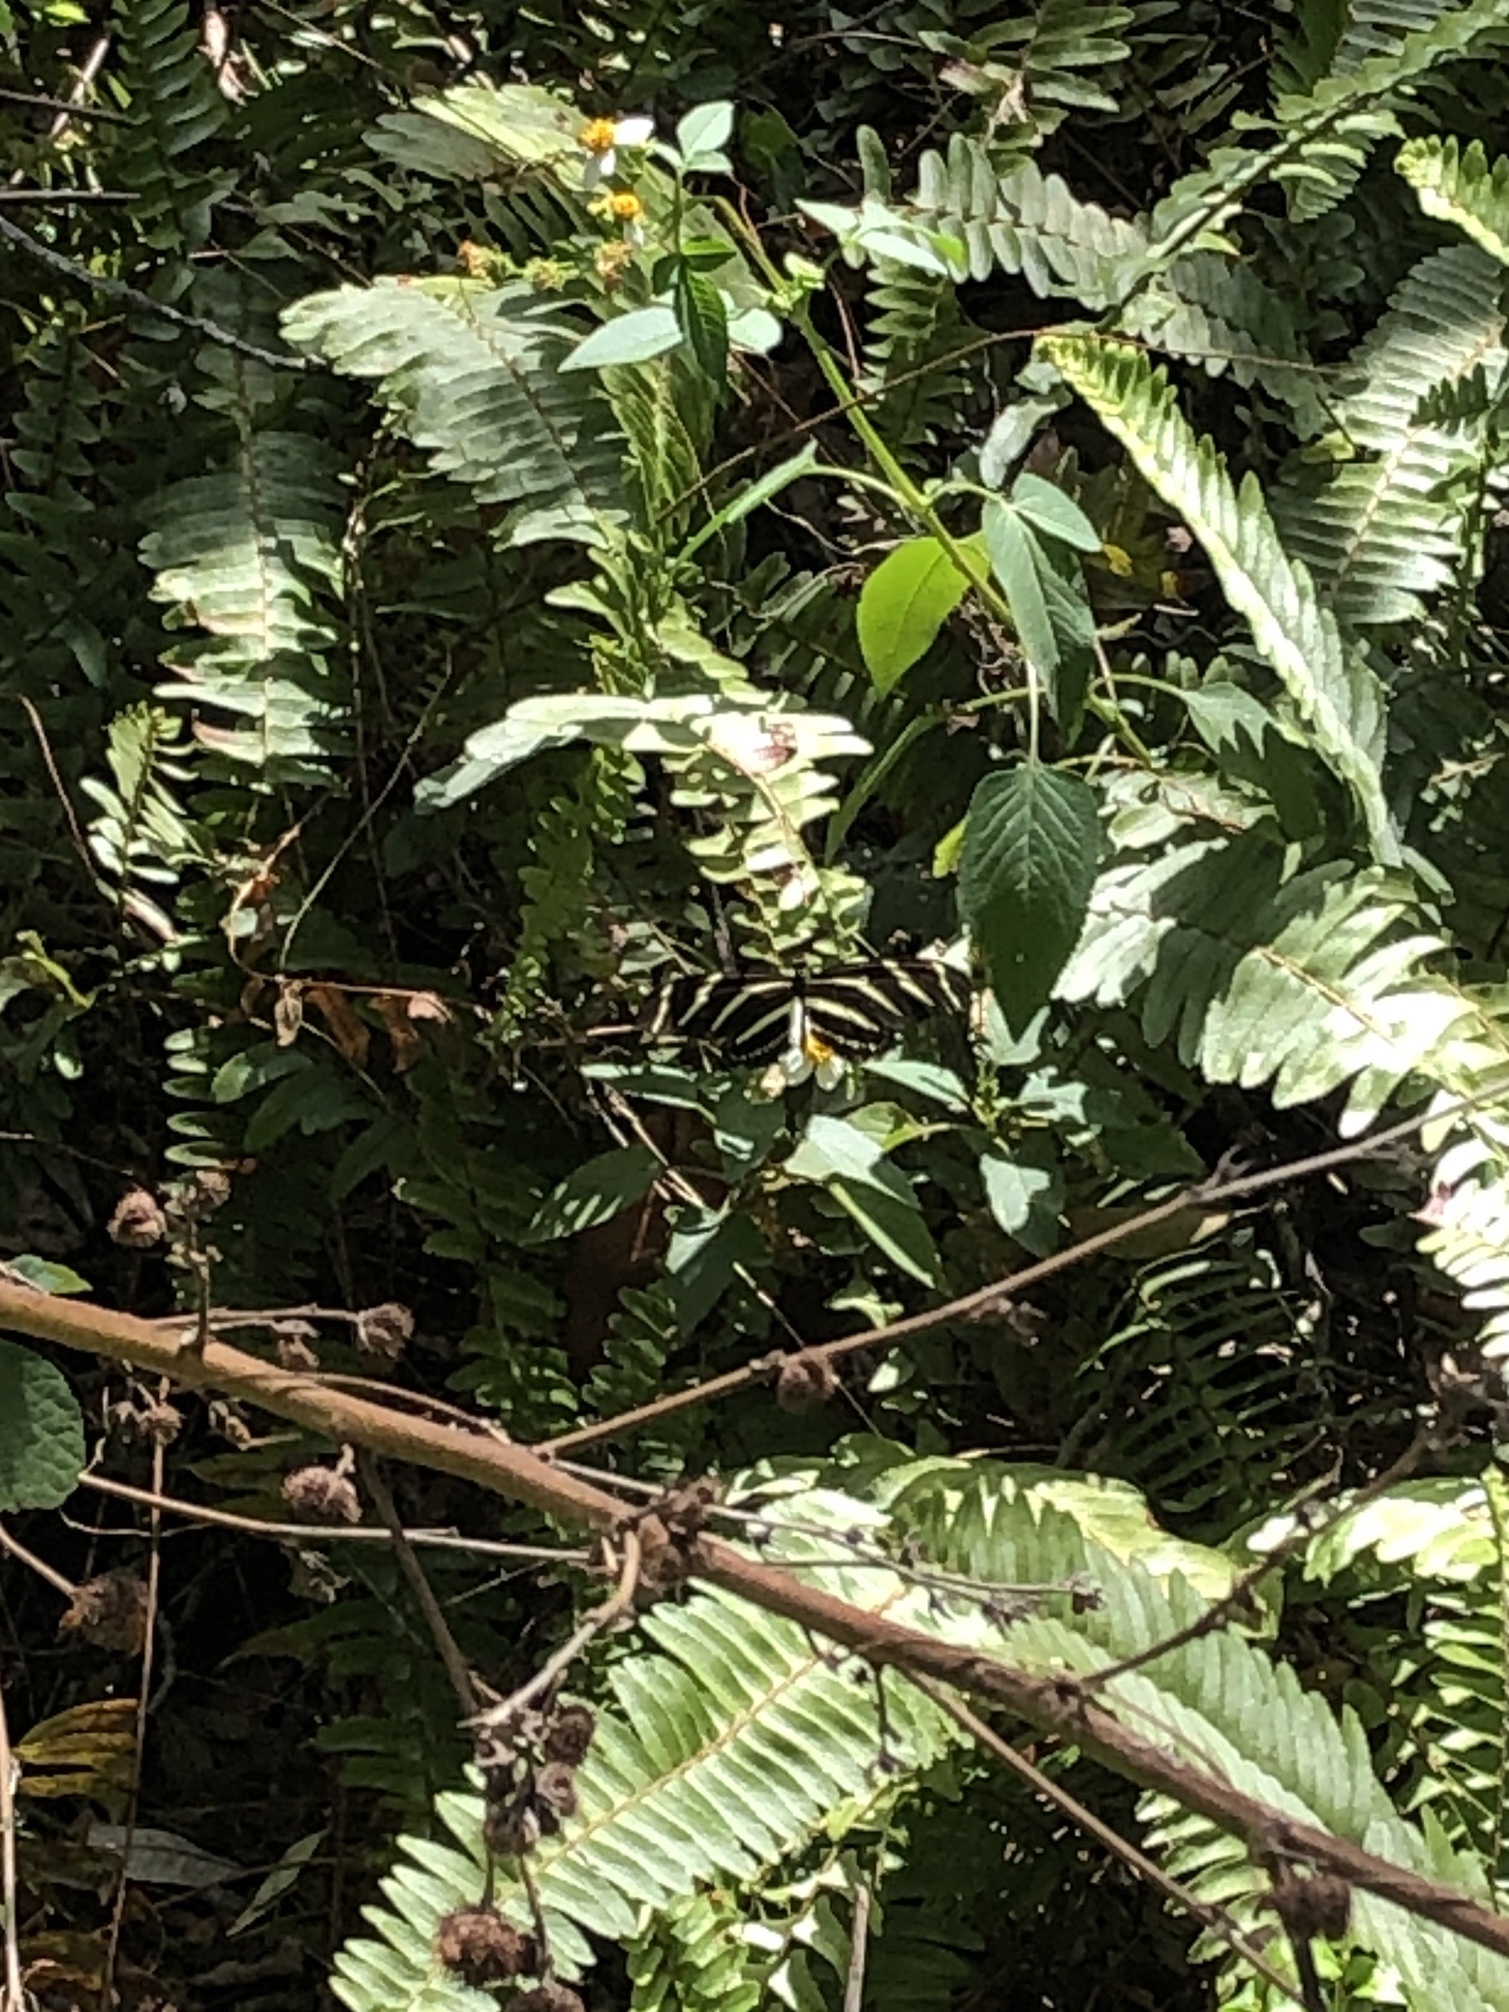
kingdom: Animalia
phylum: Arthropoda
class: Insecta
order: Lepidoptera
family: Nymphalidae
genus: Heliconius
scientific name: Heliconius charithonia
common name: Zebra long wing
